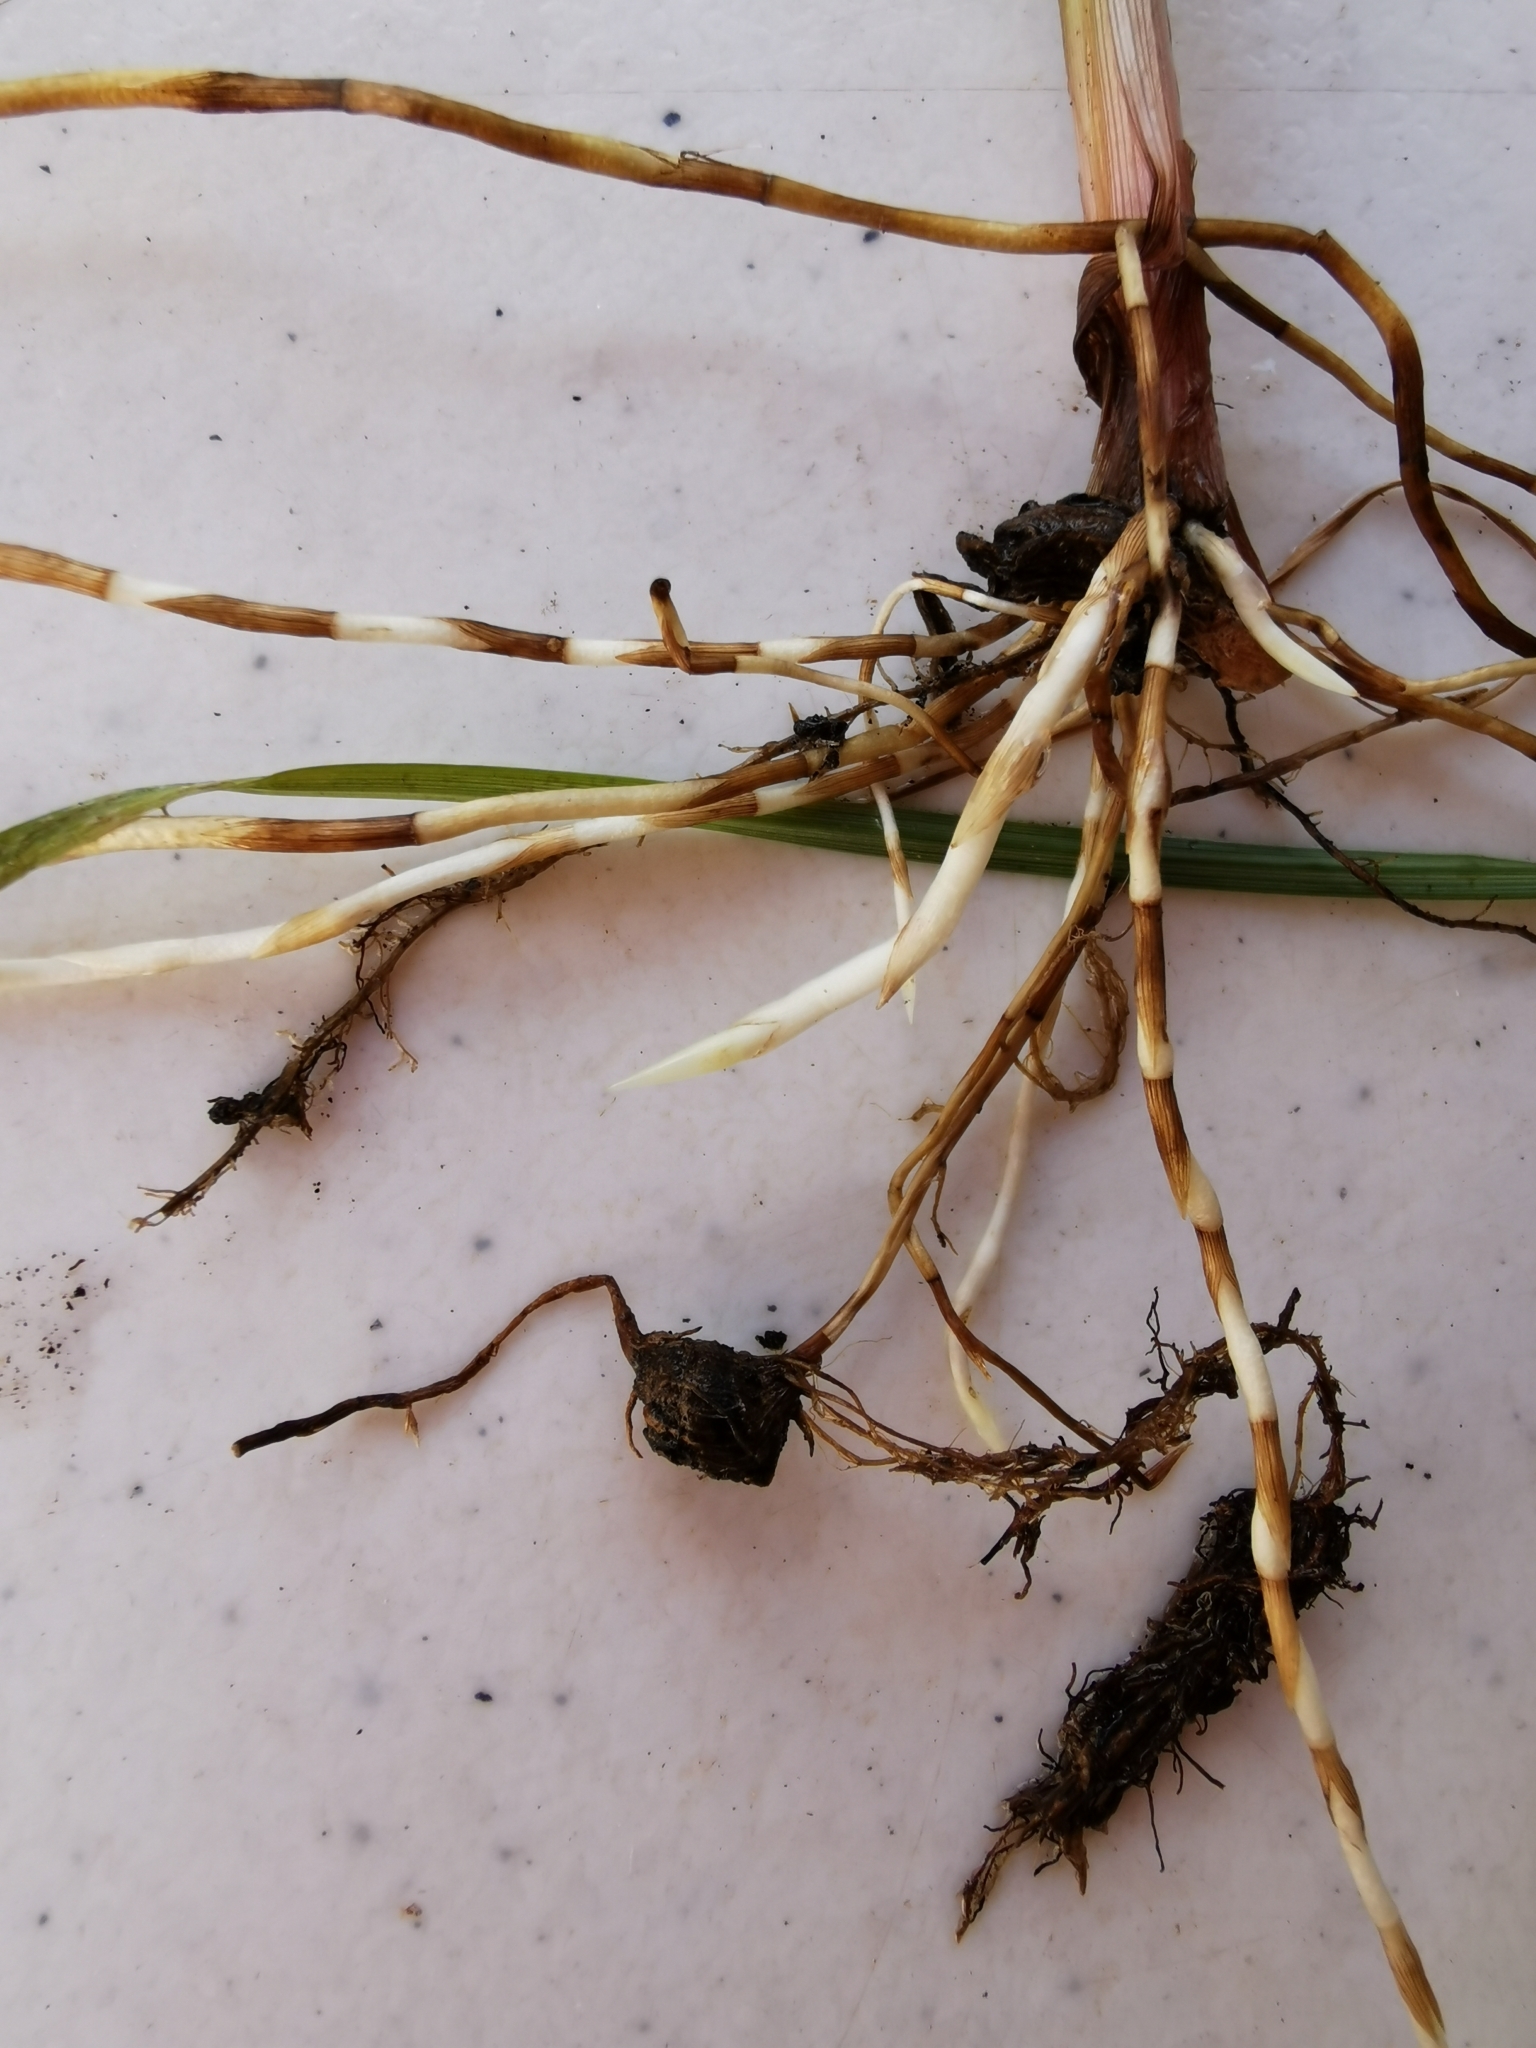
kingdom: Plantae
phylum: Tracheophyta
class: Liliopsida
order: Poales
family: Cyperaceae
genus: Cyperus
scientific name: Cyperus esculentus
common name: Yellow nutsedge
